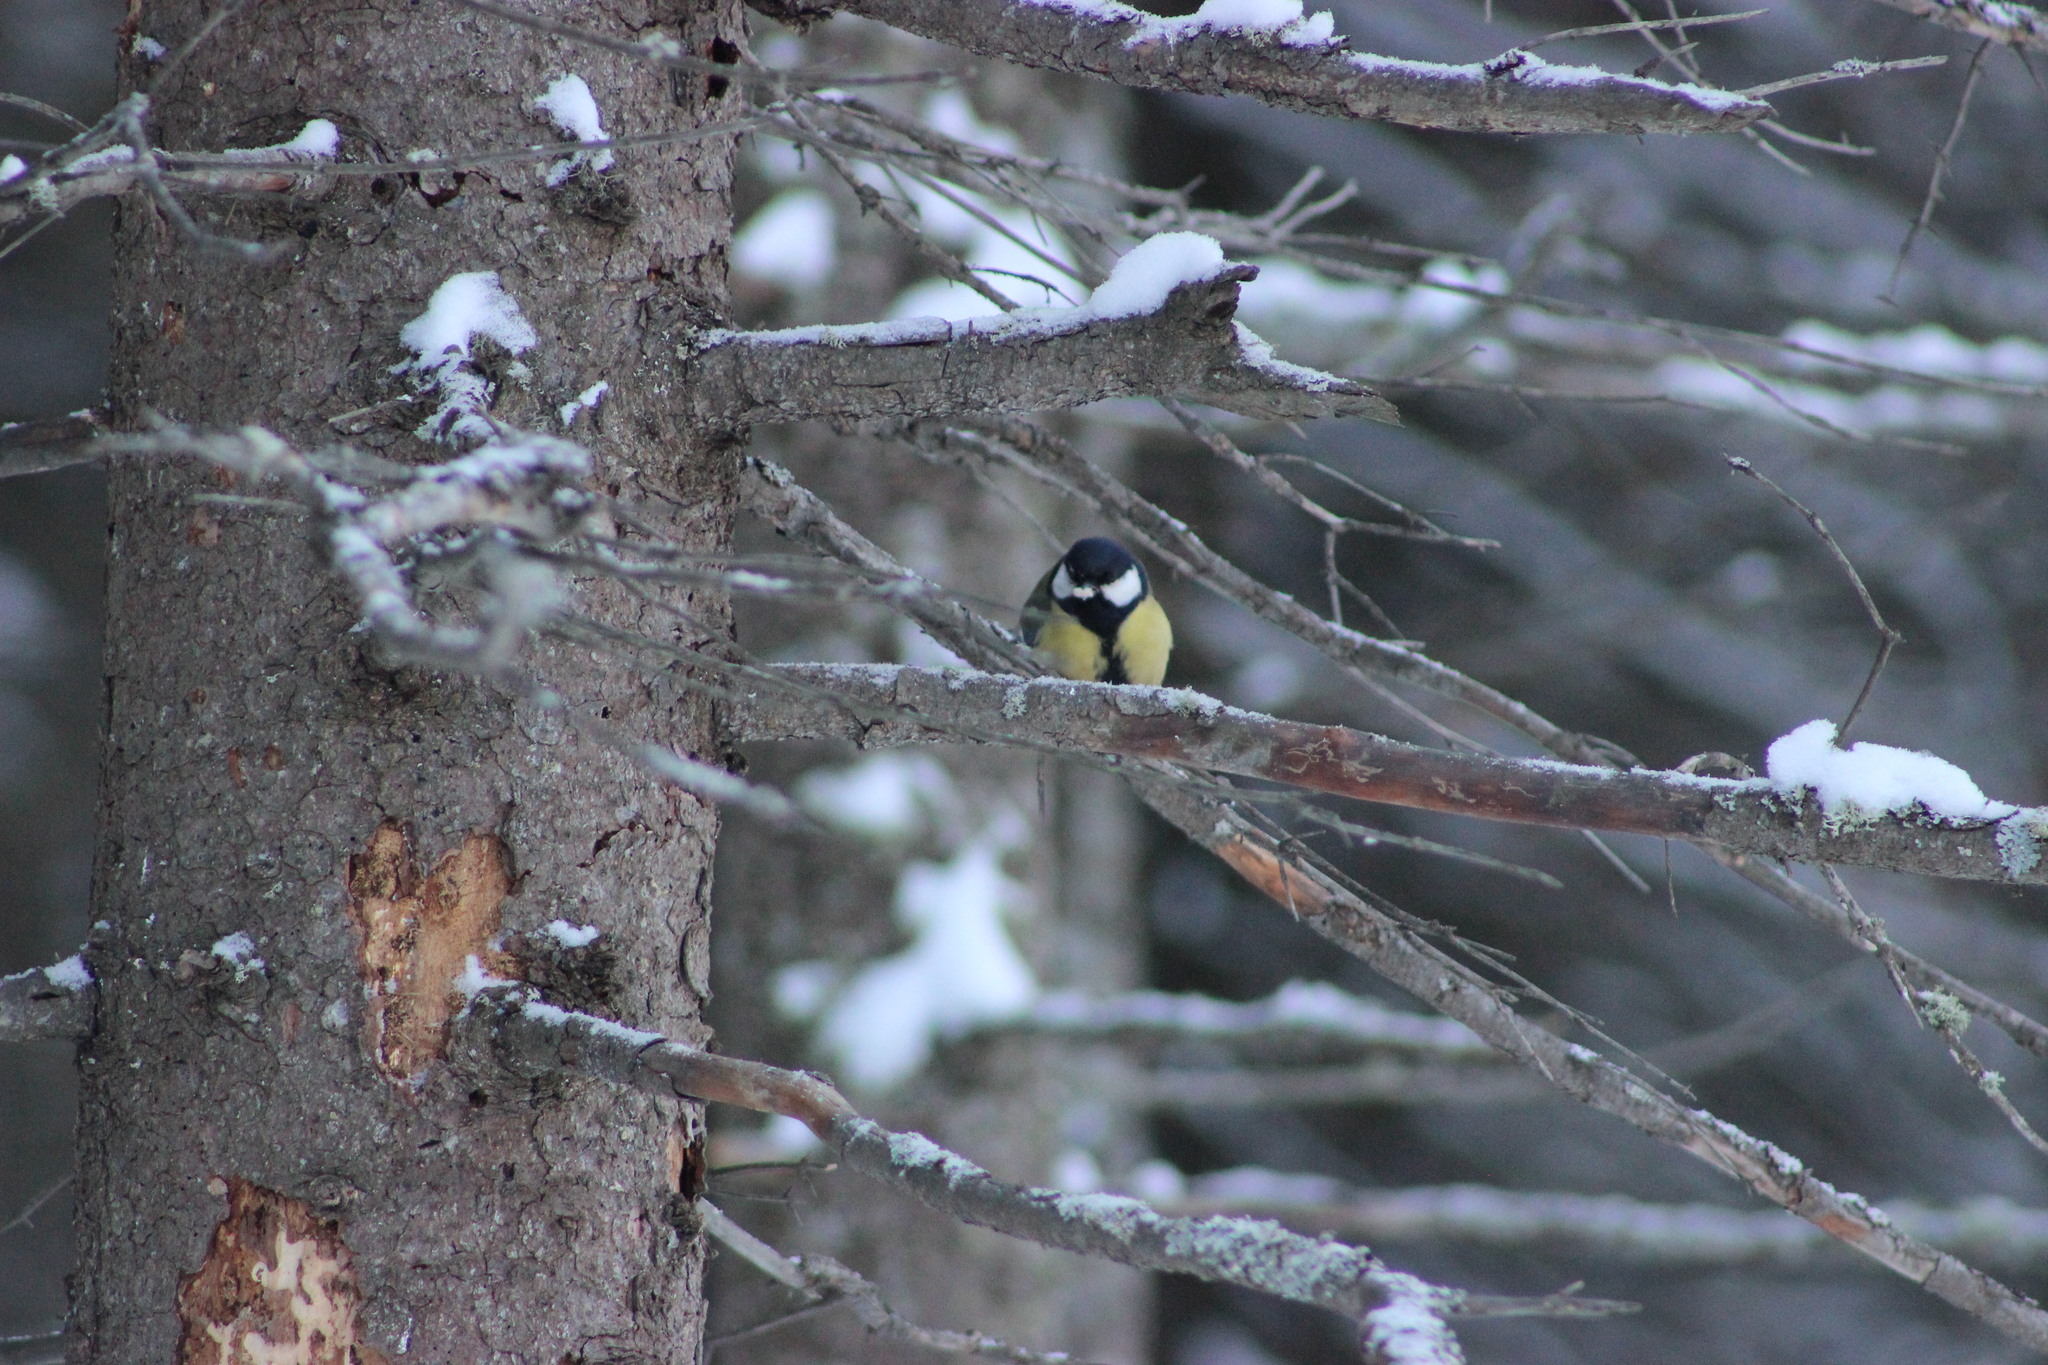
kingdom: Animalia
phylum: Chordata
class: Aves
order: Passeriformes
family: Paridae
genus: Parus
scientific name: Parus major
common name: Great tit
